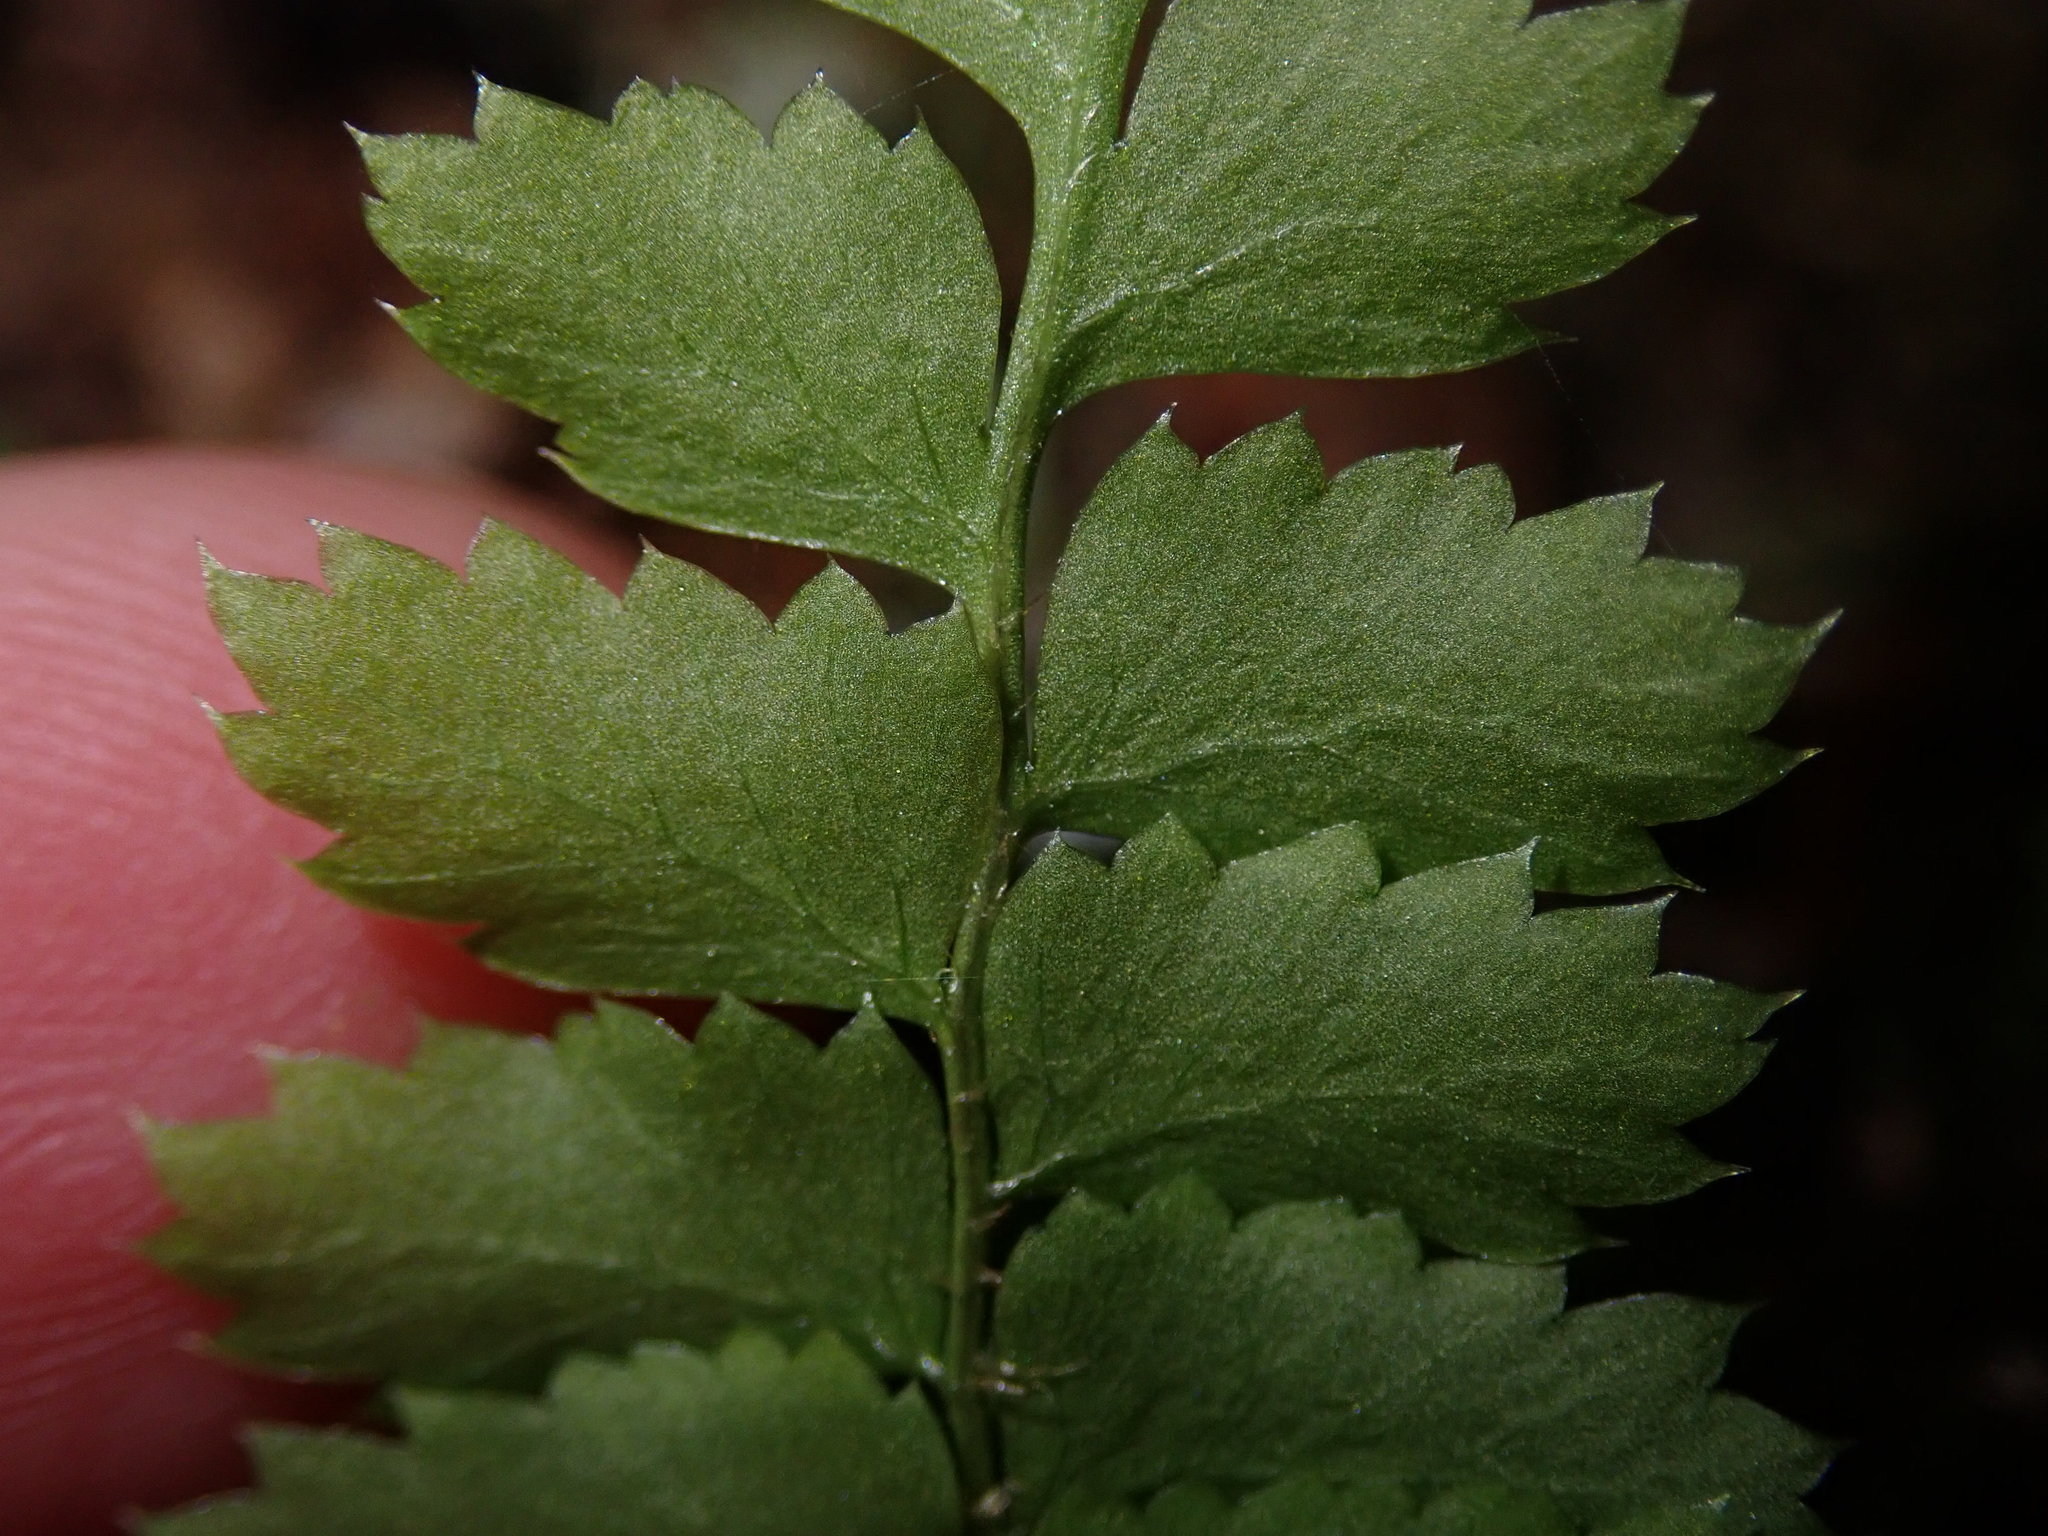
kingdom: Plantae
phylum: Tracheophyta
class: Polypodiopsida
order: Polypodiales
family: Dryopteridaceae
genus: Polystichum
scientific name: Polystichum munitum
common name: Western sword-fern
